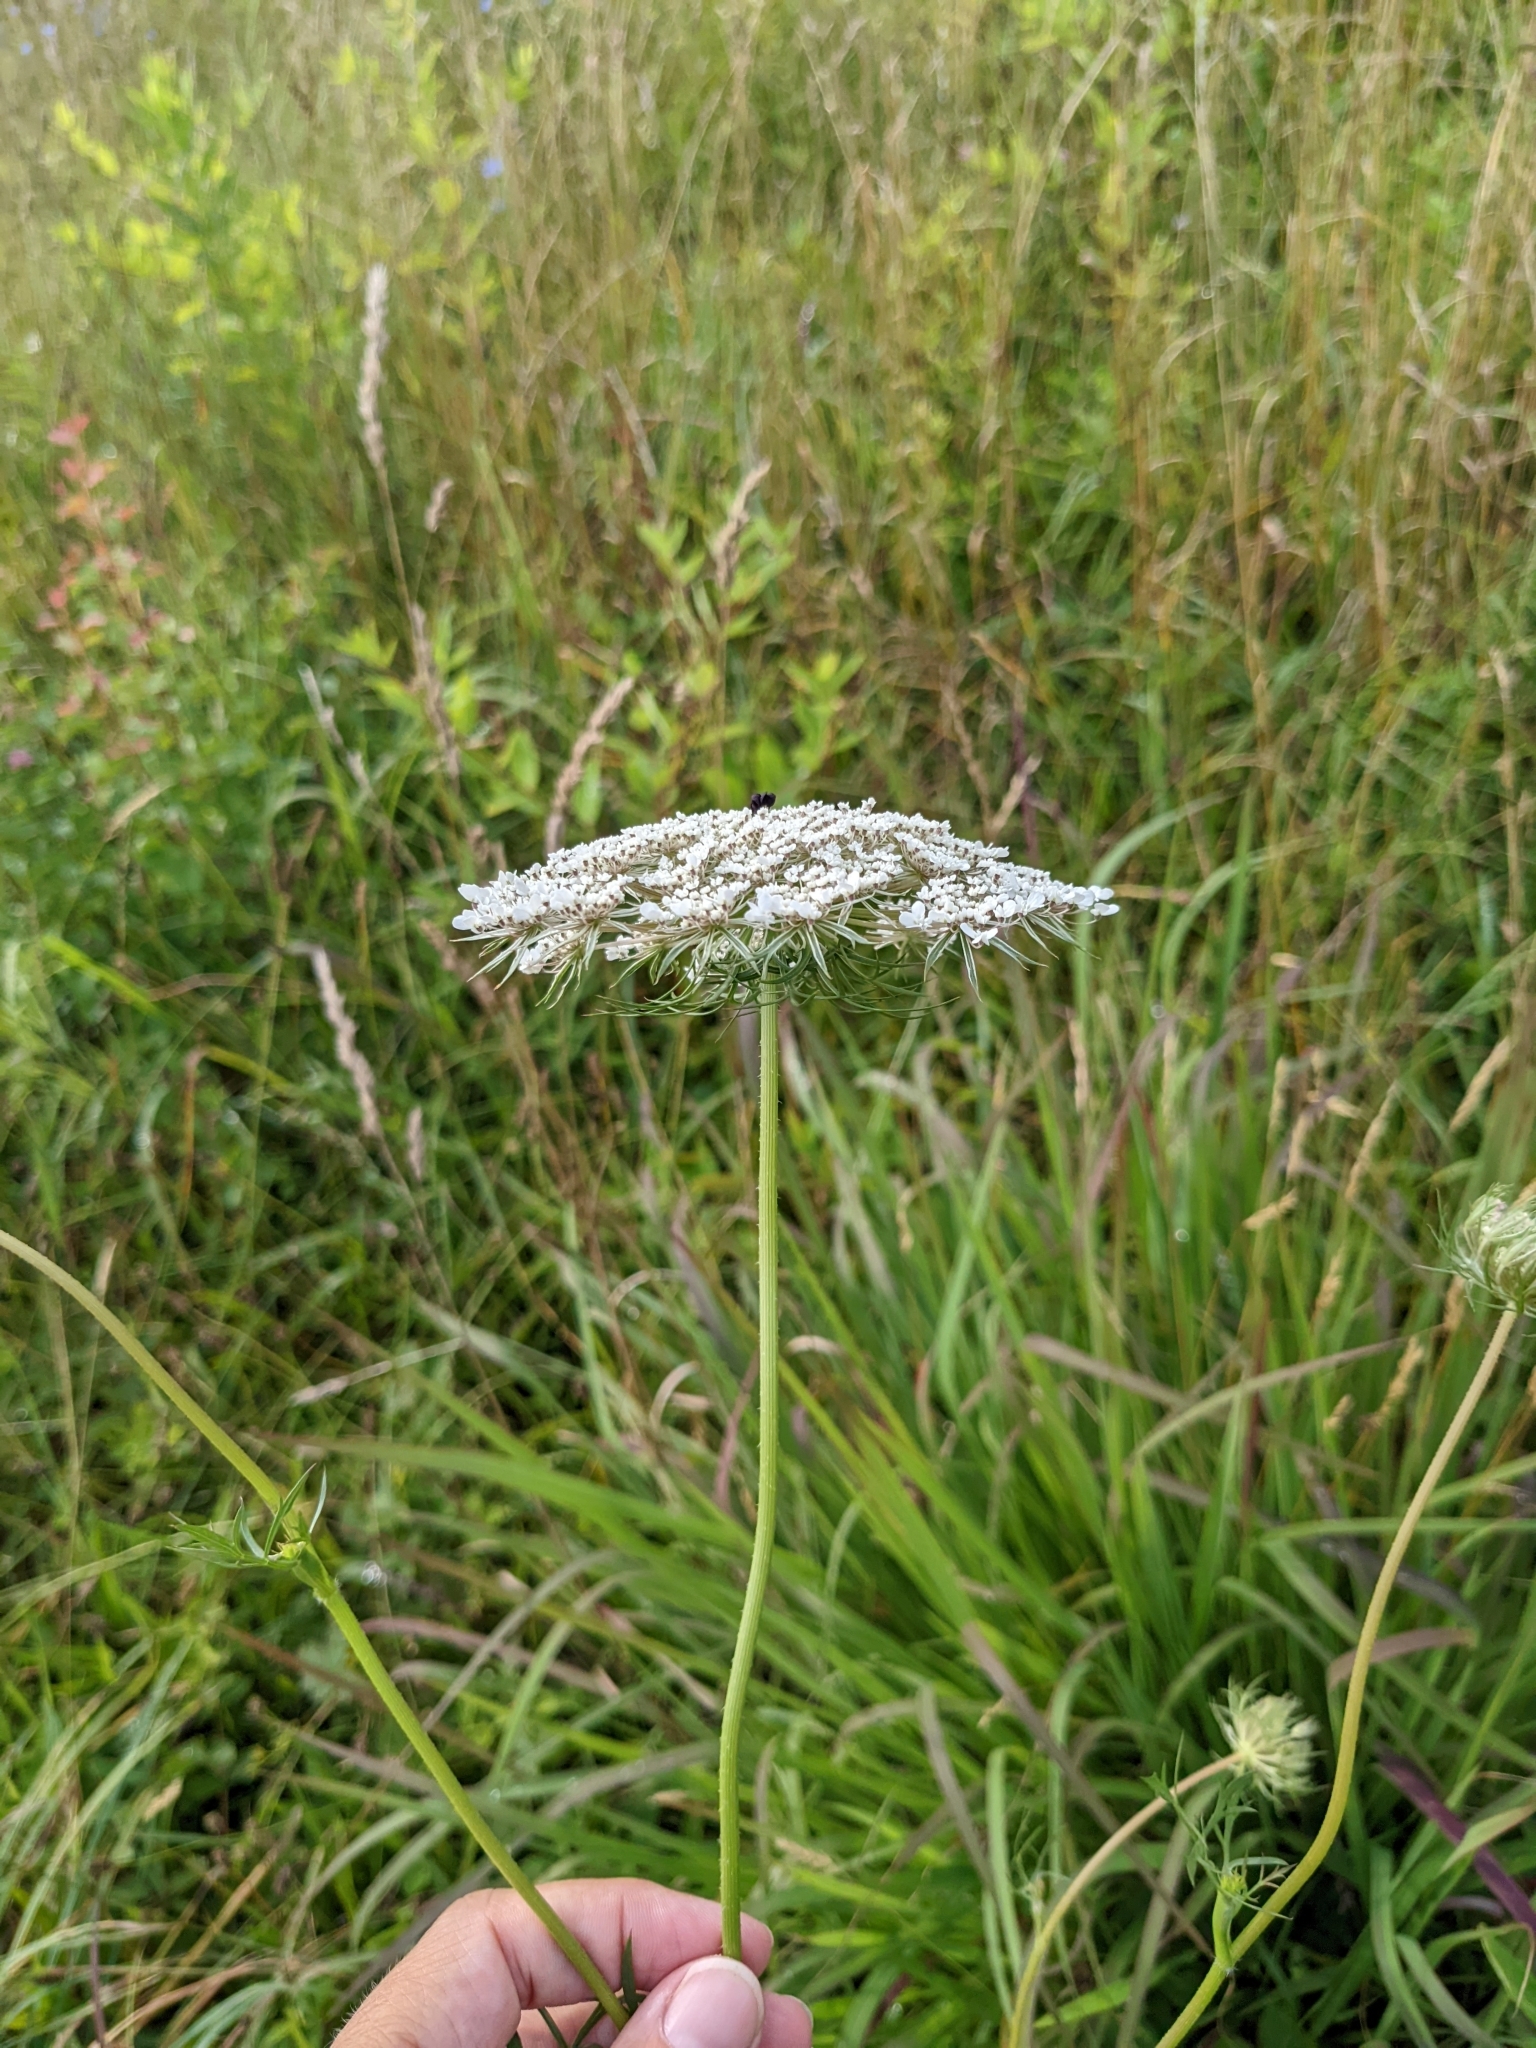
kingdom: Plantae
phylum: Tracheophyta
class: Magnoliopsida
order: Apiales
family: Apiaceae
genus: Daucus
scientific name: Daucus carota
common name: Wild carrot
